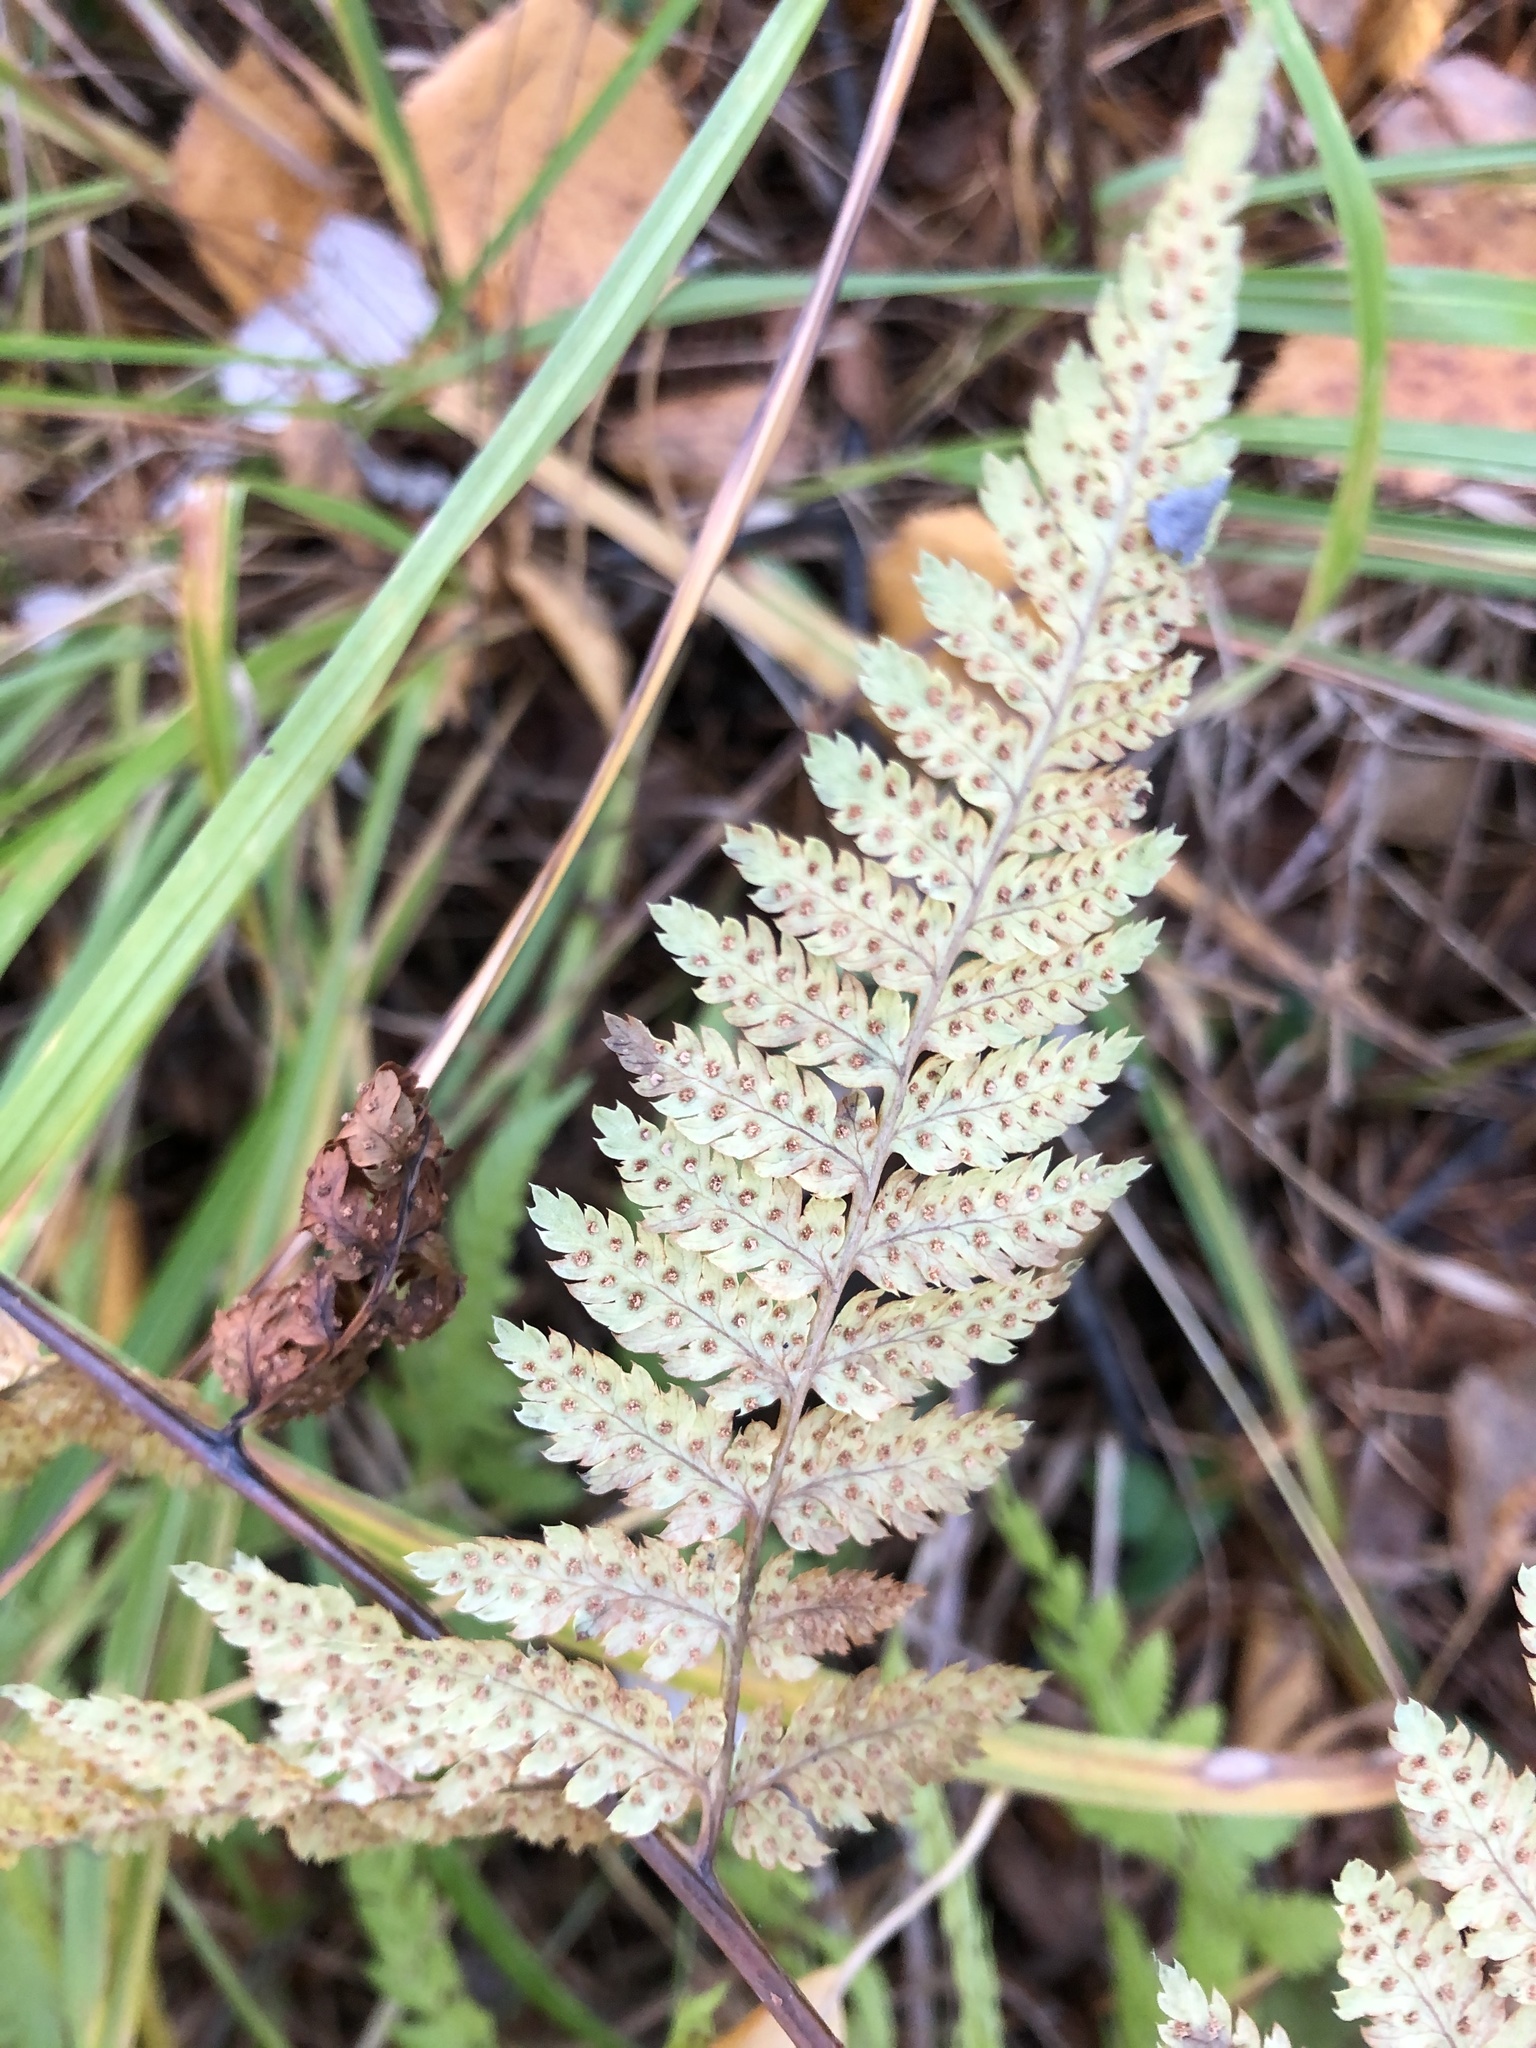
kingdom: Plantae
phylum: Tracheophyta
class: Polypodiopsida
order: Polypodiales
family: Dryopteridaceae
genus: Dryopteris
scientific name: Dryopteris carthusiana
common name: Narrow buckler-fern
